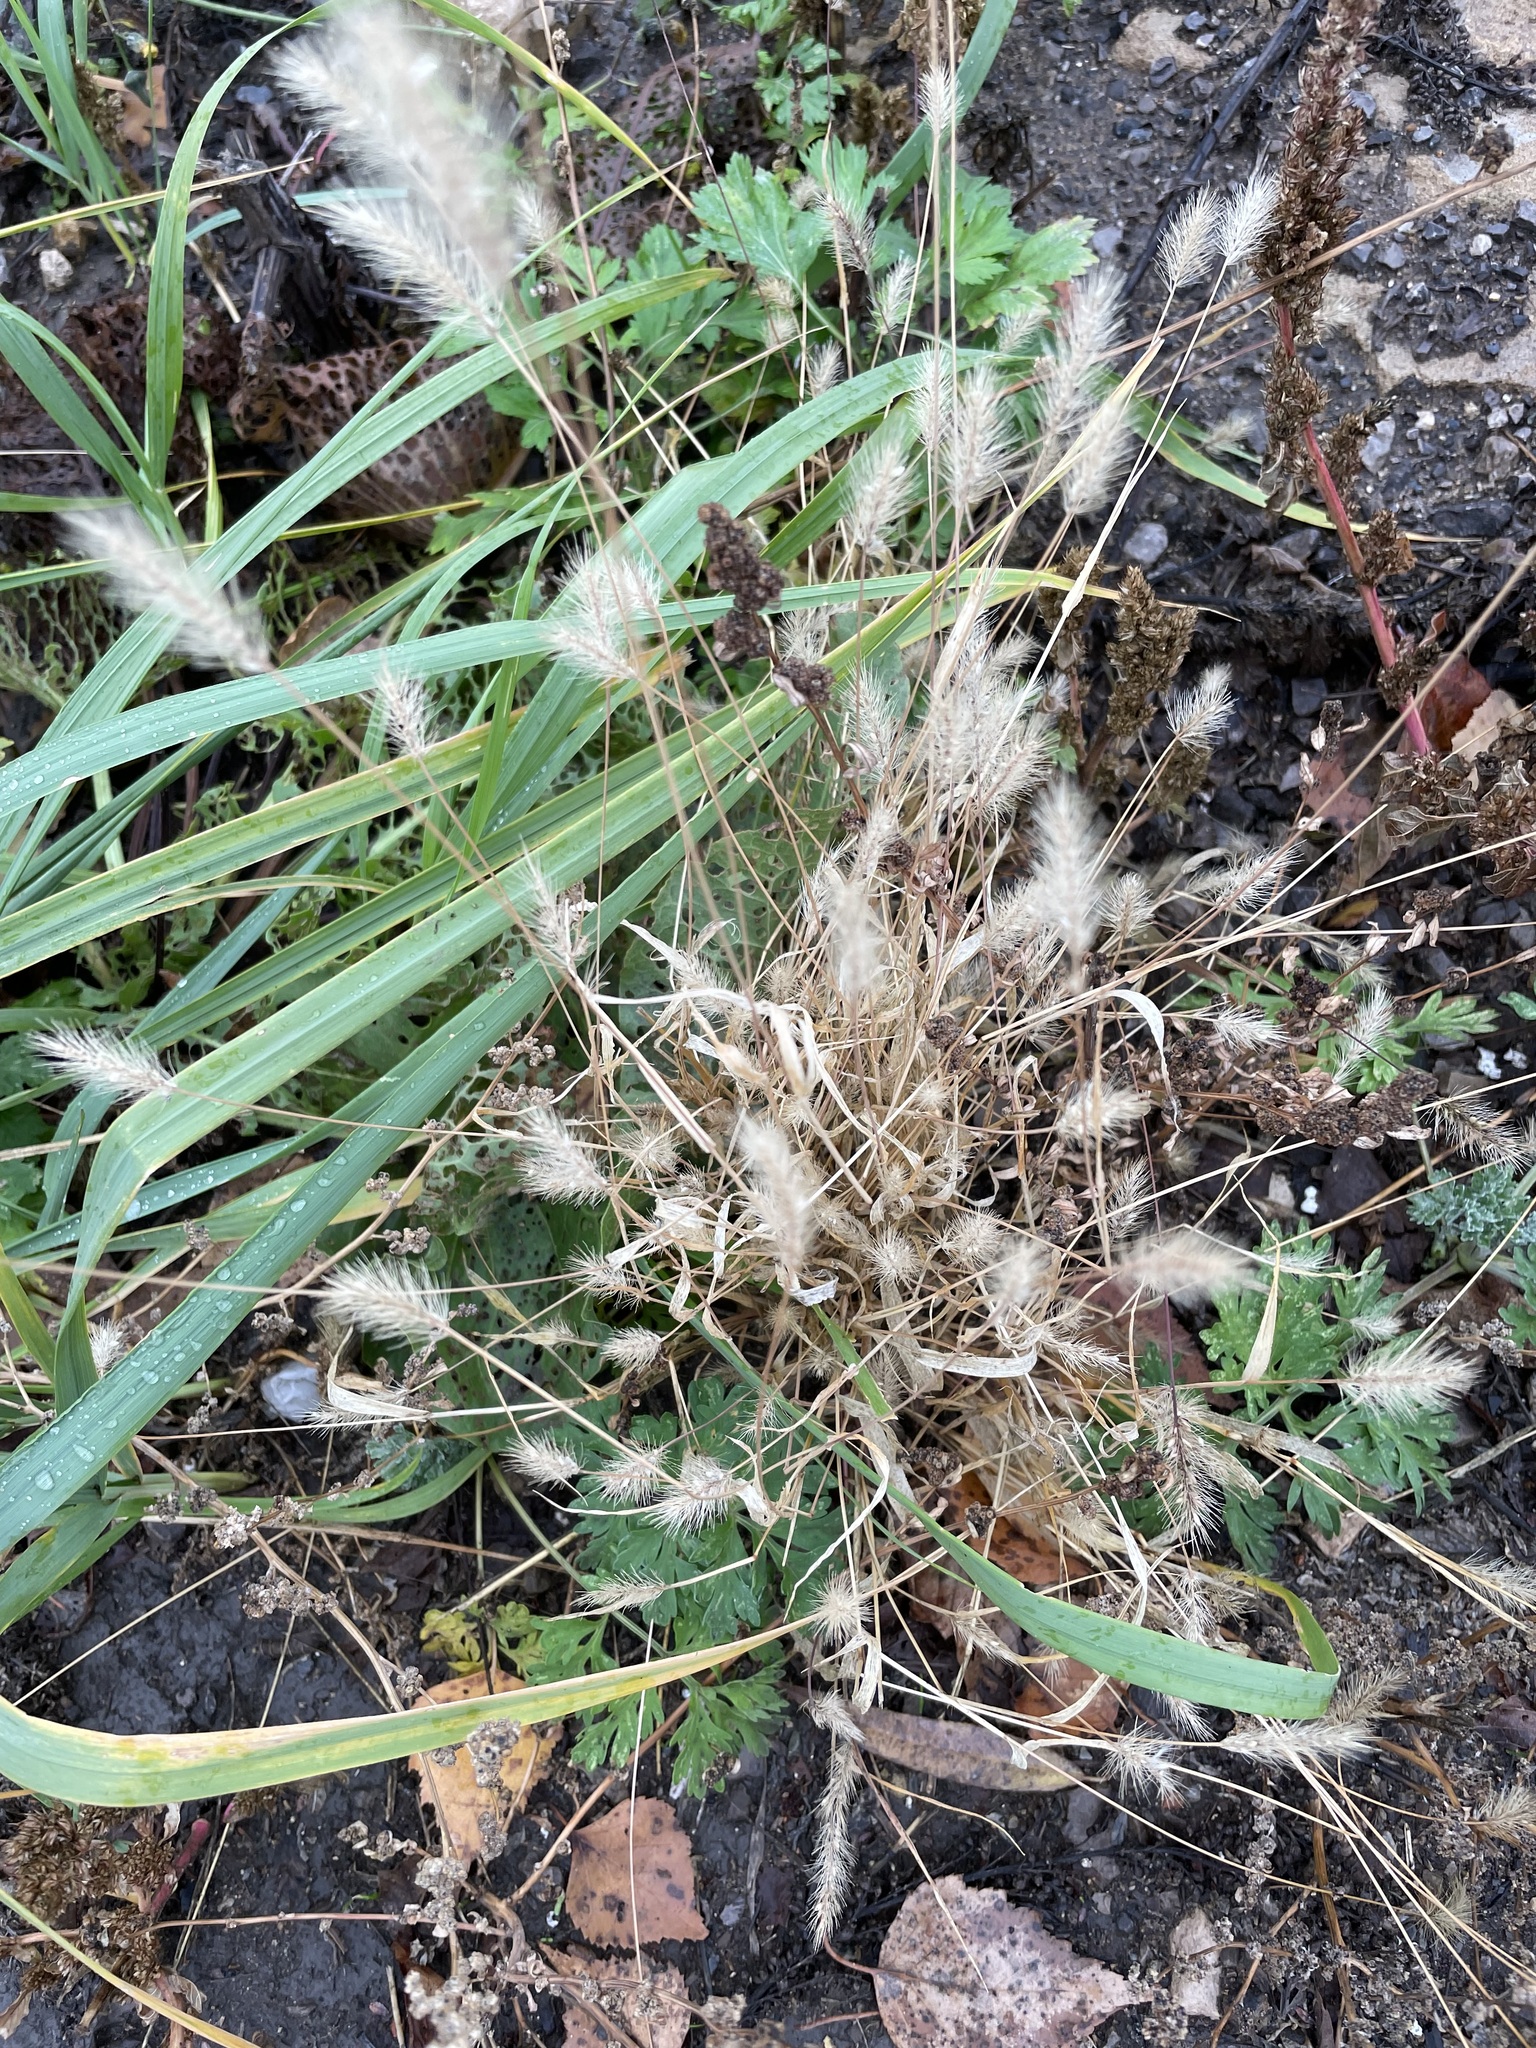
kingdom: Plantae
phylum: Tracheophyta
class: Liliopsida
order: Poales
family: Poaceae
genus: Setaria
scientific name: Setaria viridis
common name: Green bristlegrass
